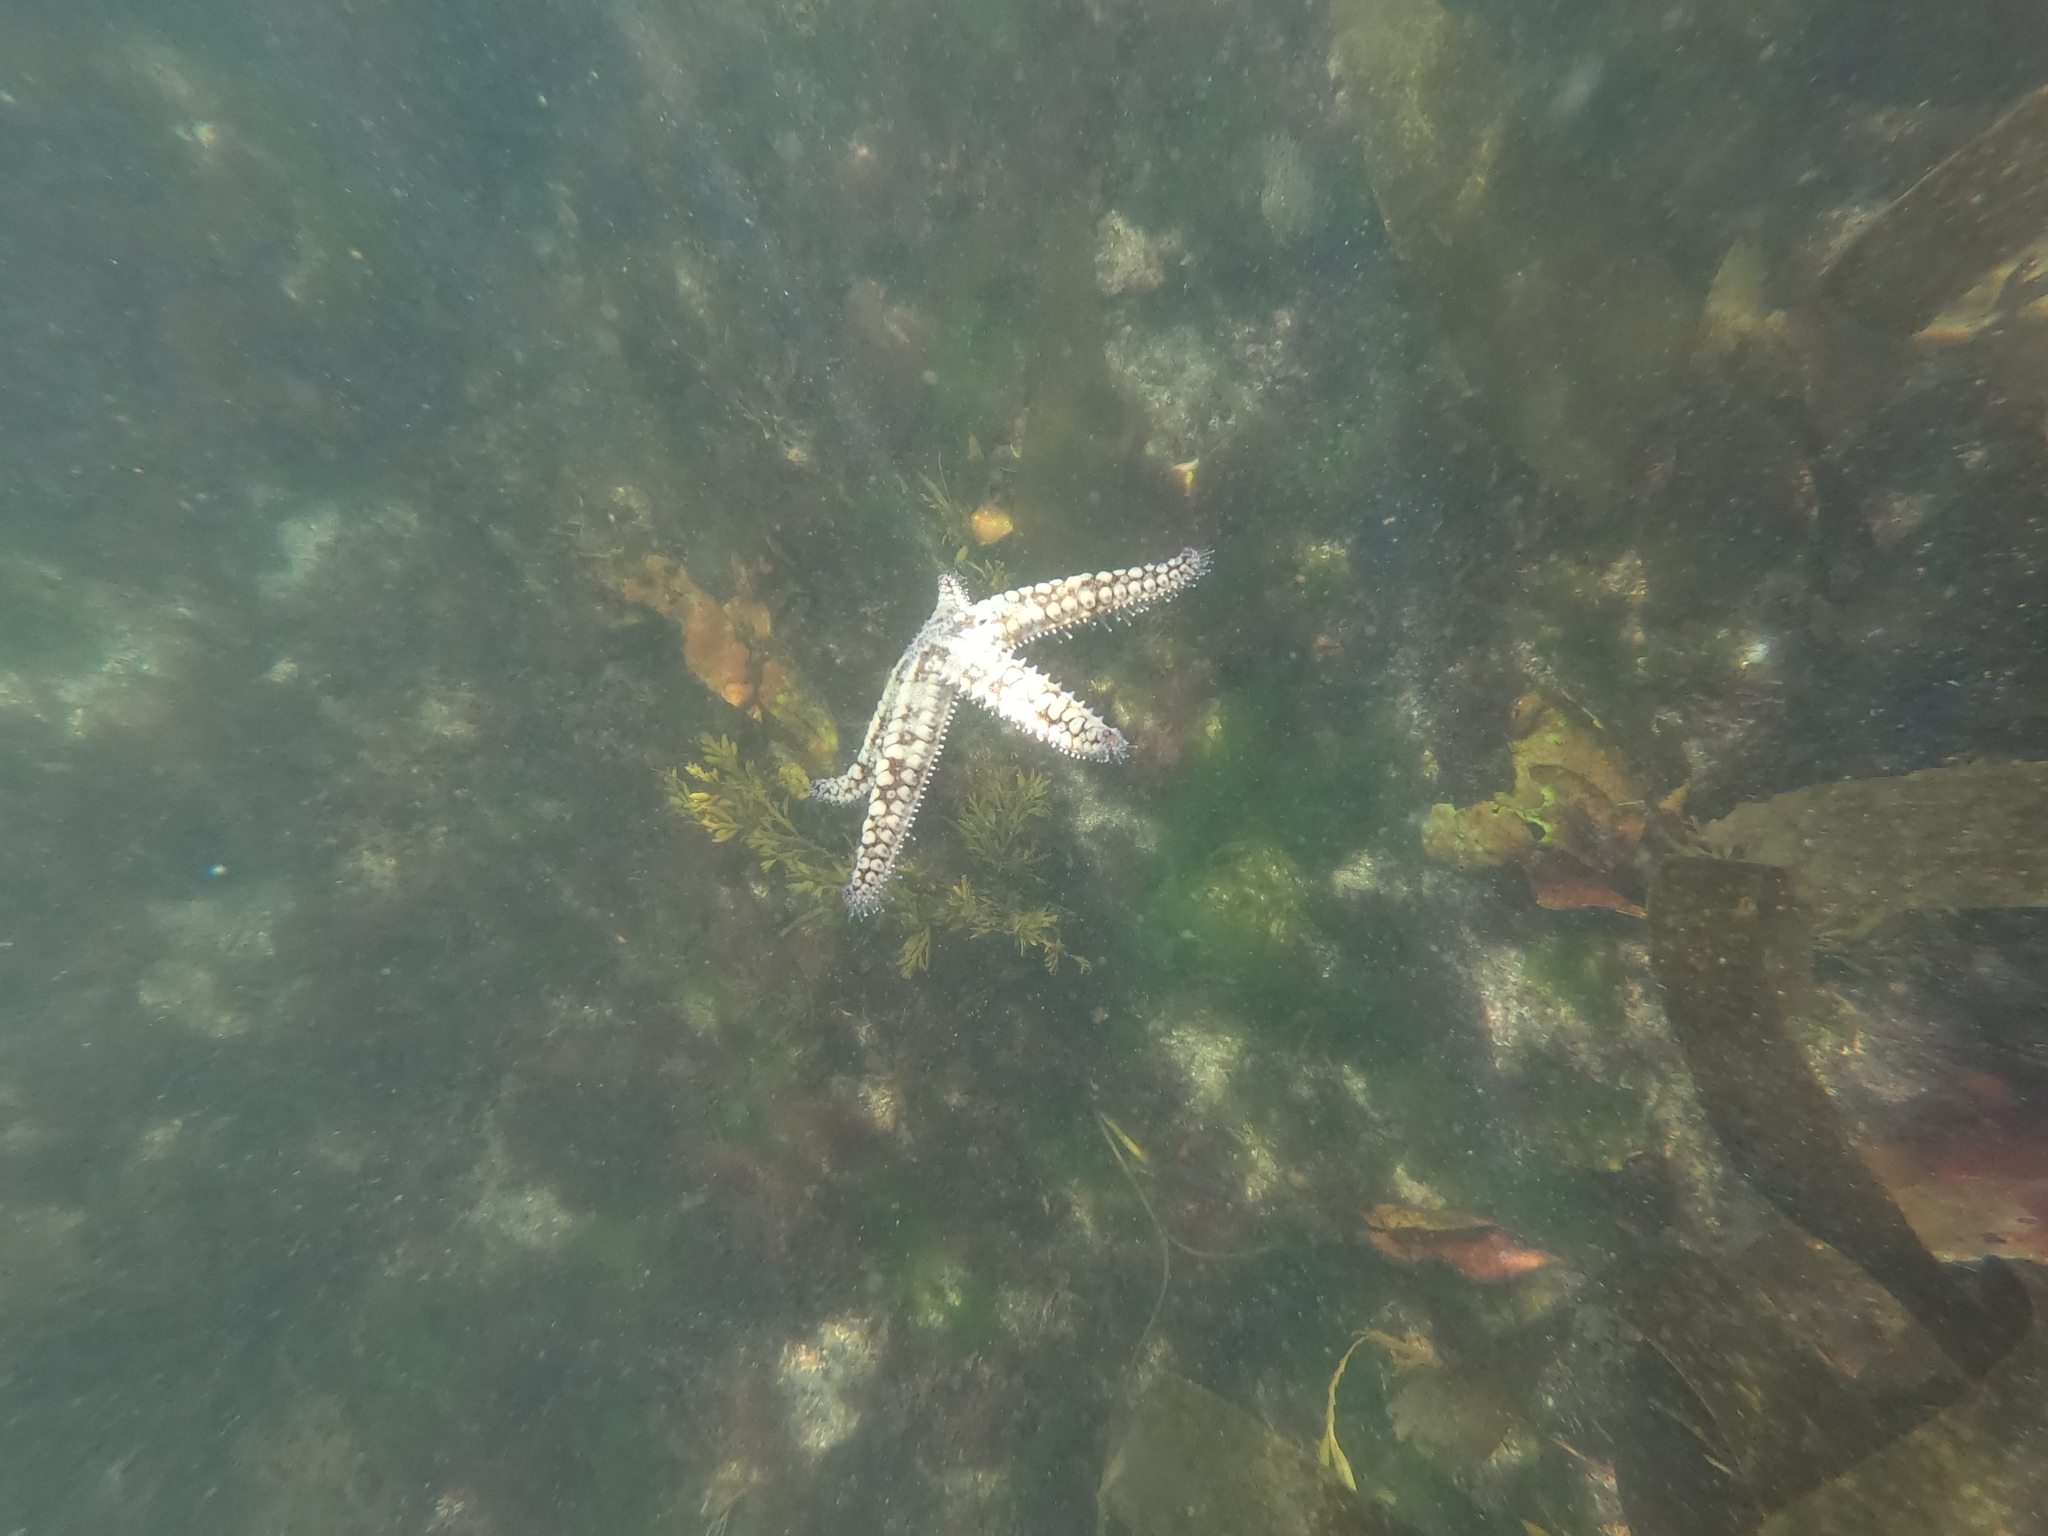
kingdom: Animalia
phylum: Echinodermata
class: Asteroidea
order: Forcipulatida
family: Asteriidae
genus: Marthasterias
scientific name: Marthasterias glacialis
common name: Spiny starfish
